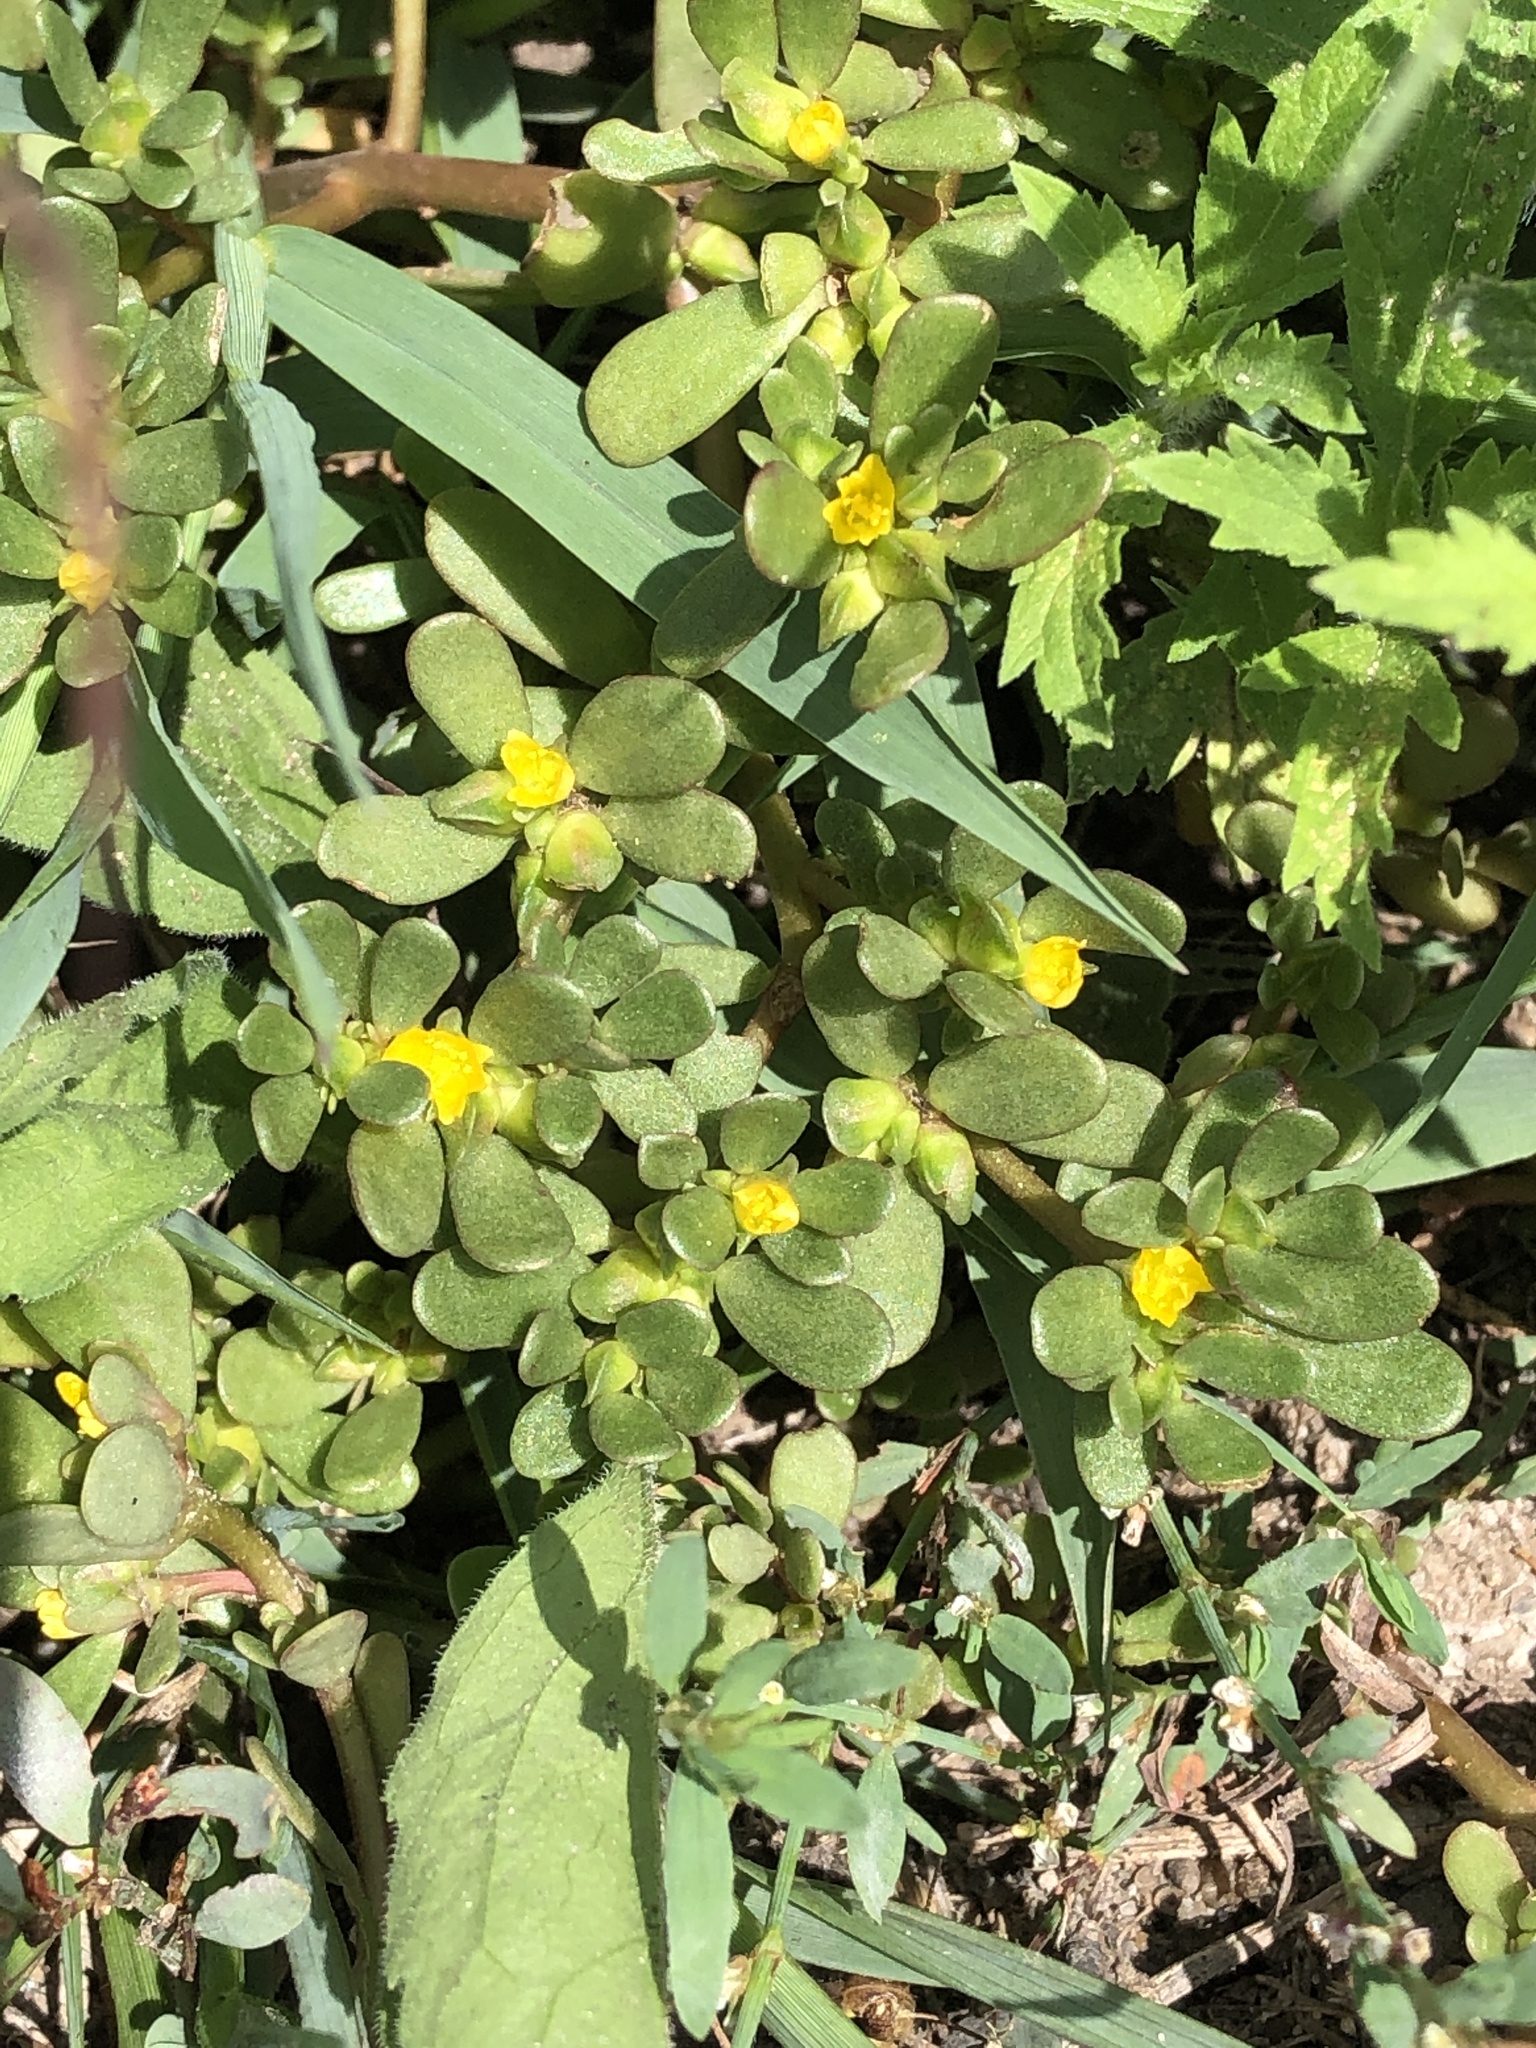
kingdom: Plantae
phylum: Tracheophyta
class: Magnoliopsida
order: Caryophyllales
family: Portulacaceae
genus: Portulaca
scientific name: Portulaca oleracea
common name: Common purslane
